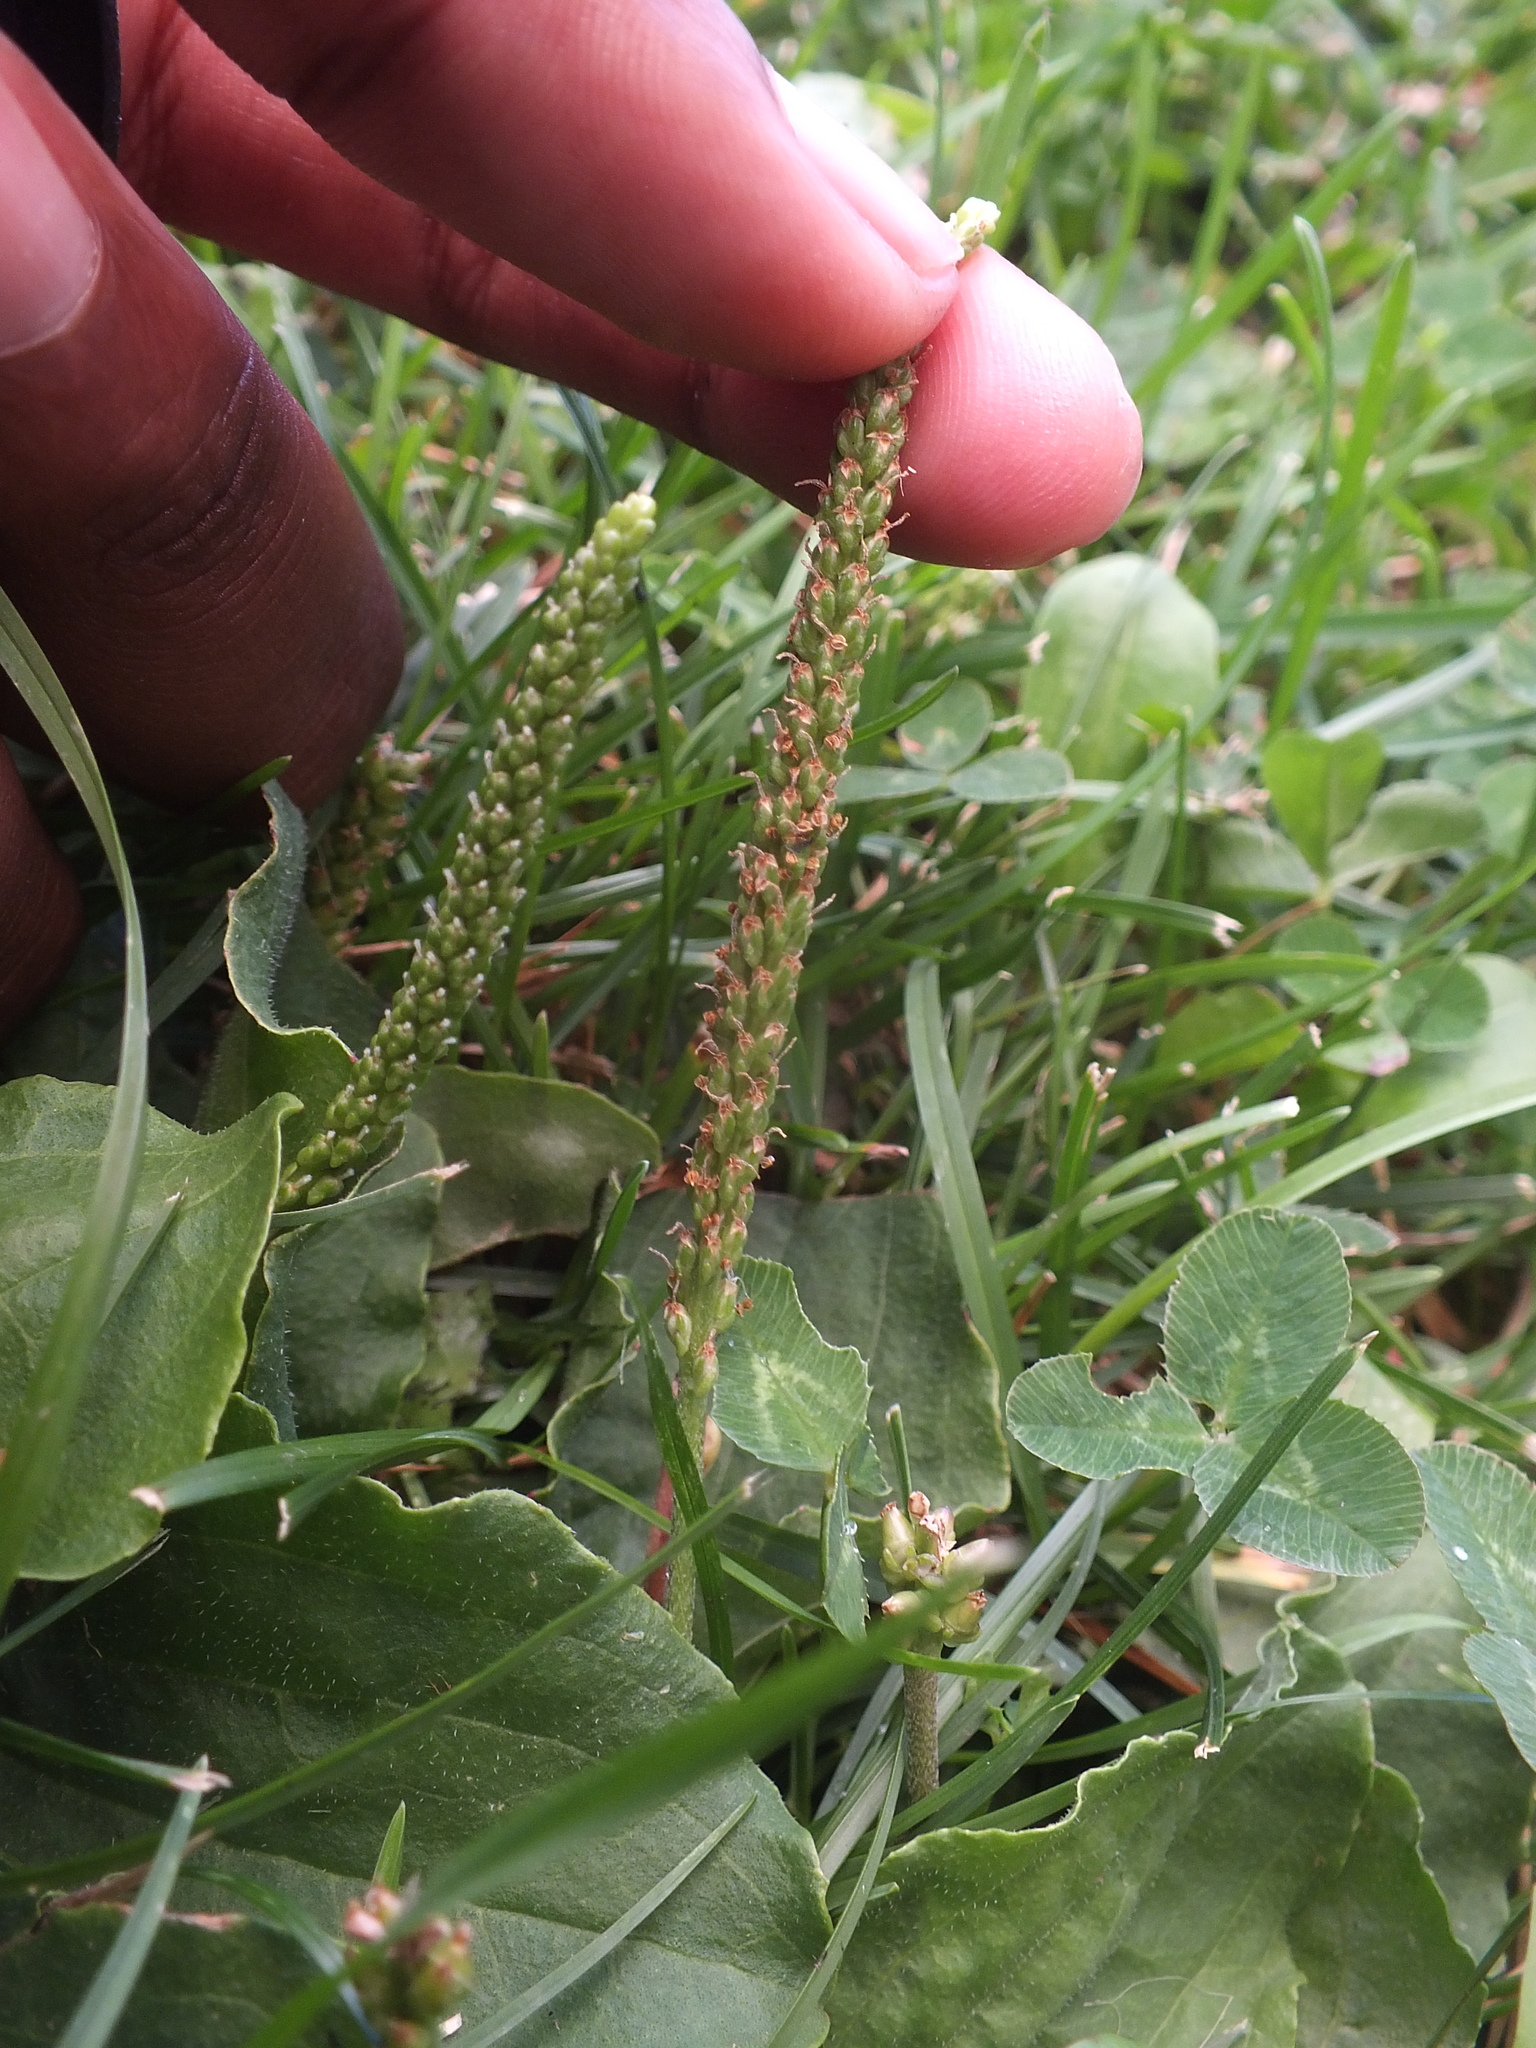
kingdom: Plantae
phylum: Tracheophyta
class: Magnoliopsida
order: Lamiales
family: Plantaginaceae
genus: Plantago
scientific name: Plantago major
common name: Common plantain
